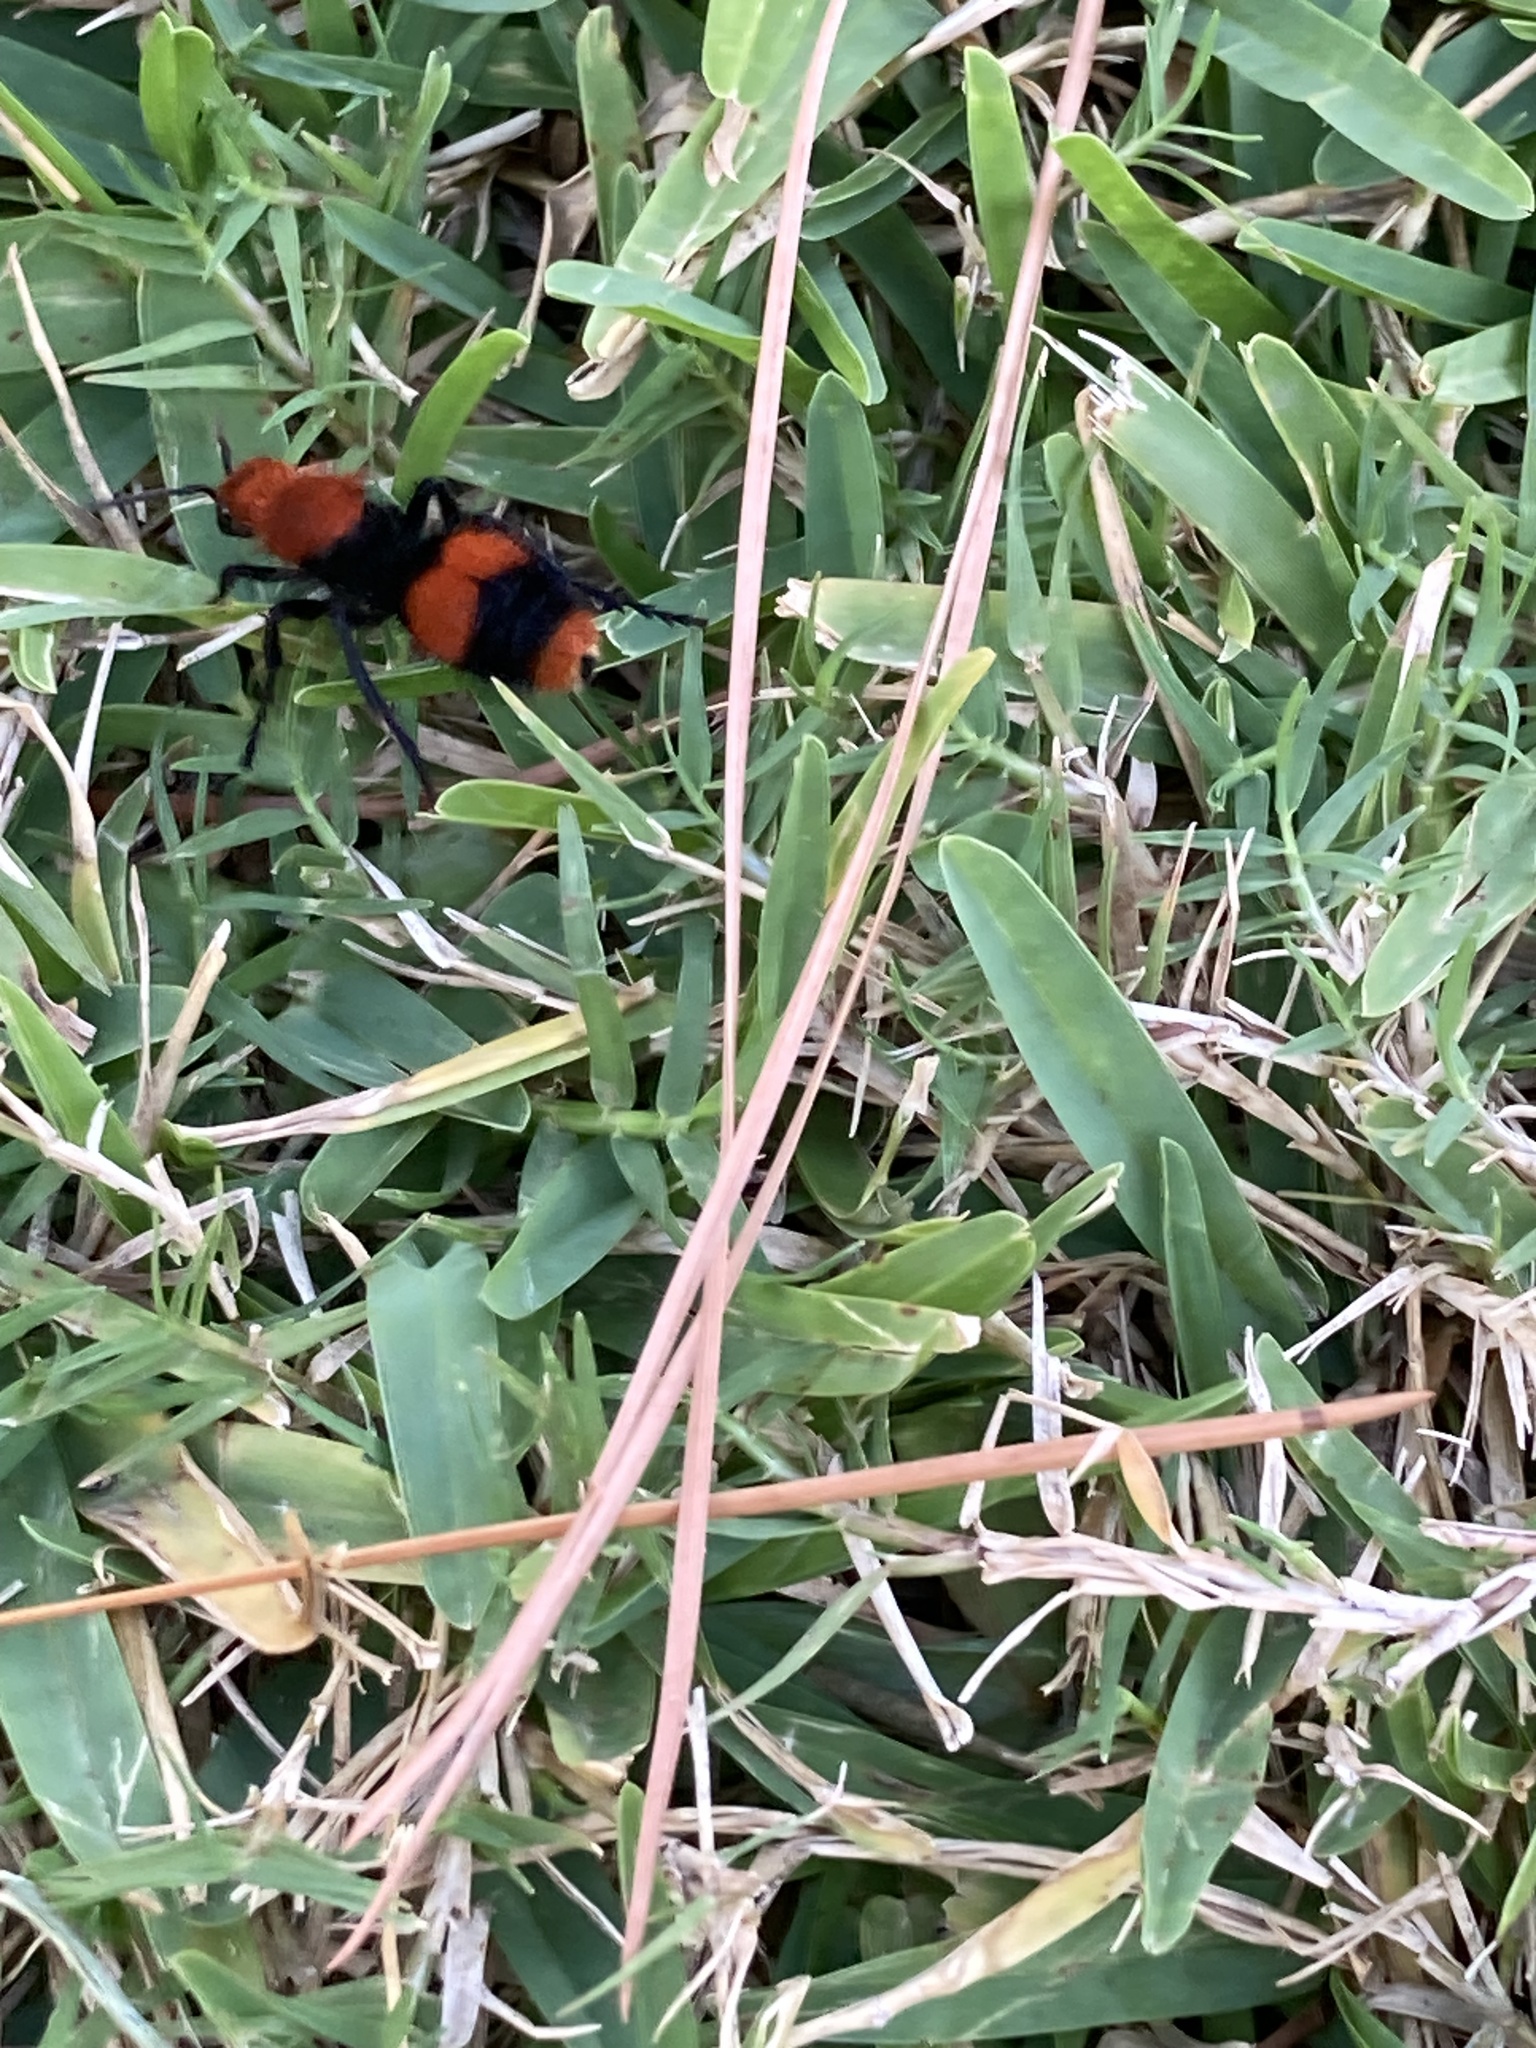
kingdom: Animalia
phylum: Arthropoda
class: Insecta
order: Hymenoptera
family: Mutillidae
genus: Dasymutilla
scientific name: Dasymutilla occidentalis
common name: Common eastern velvet ant
